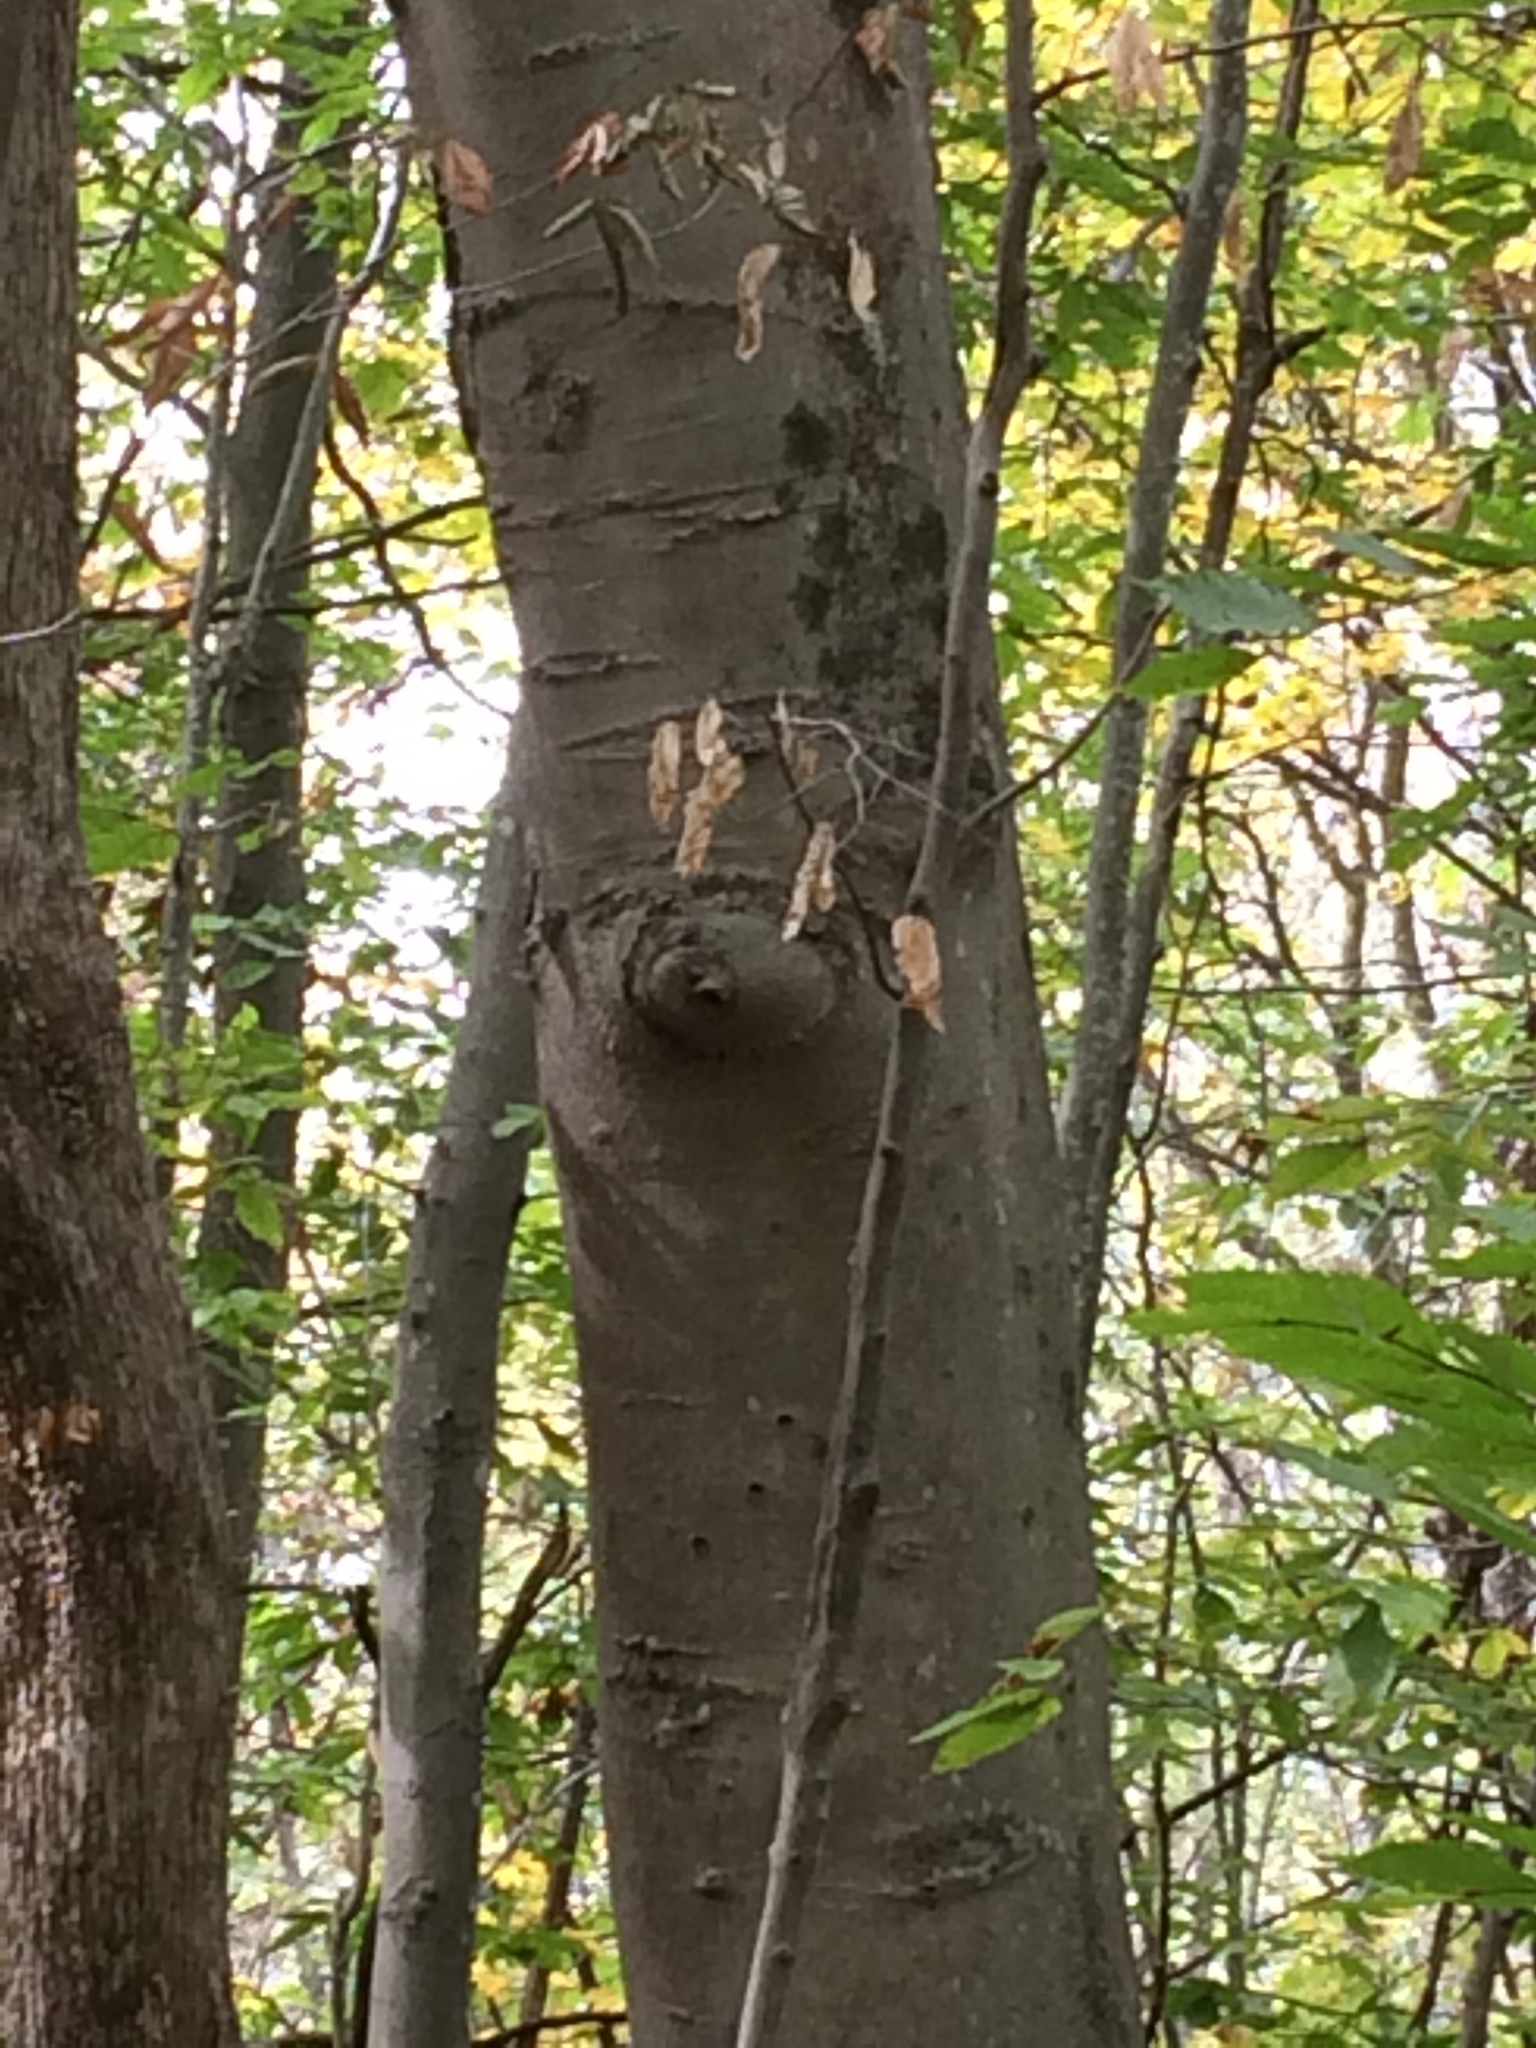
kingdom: Plantae
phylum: Tracheophyta
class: Magnoliopsida
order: Fagales
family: Fagaceae
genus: Fagus
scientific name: Fagus grandifolia
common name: American beech
